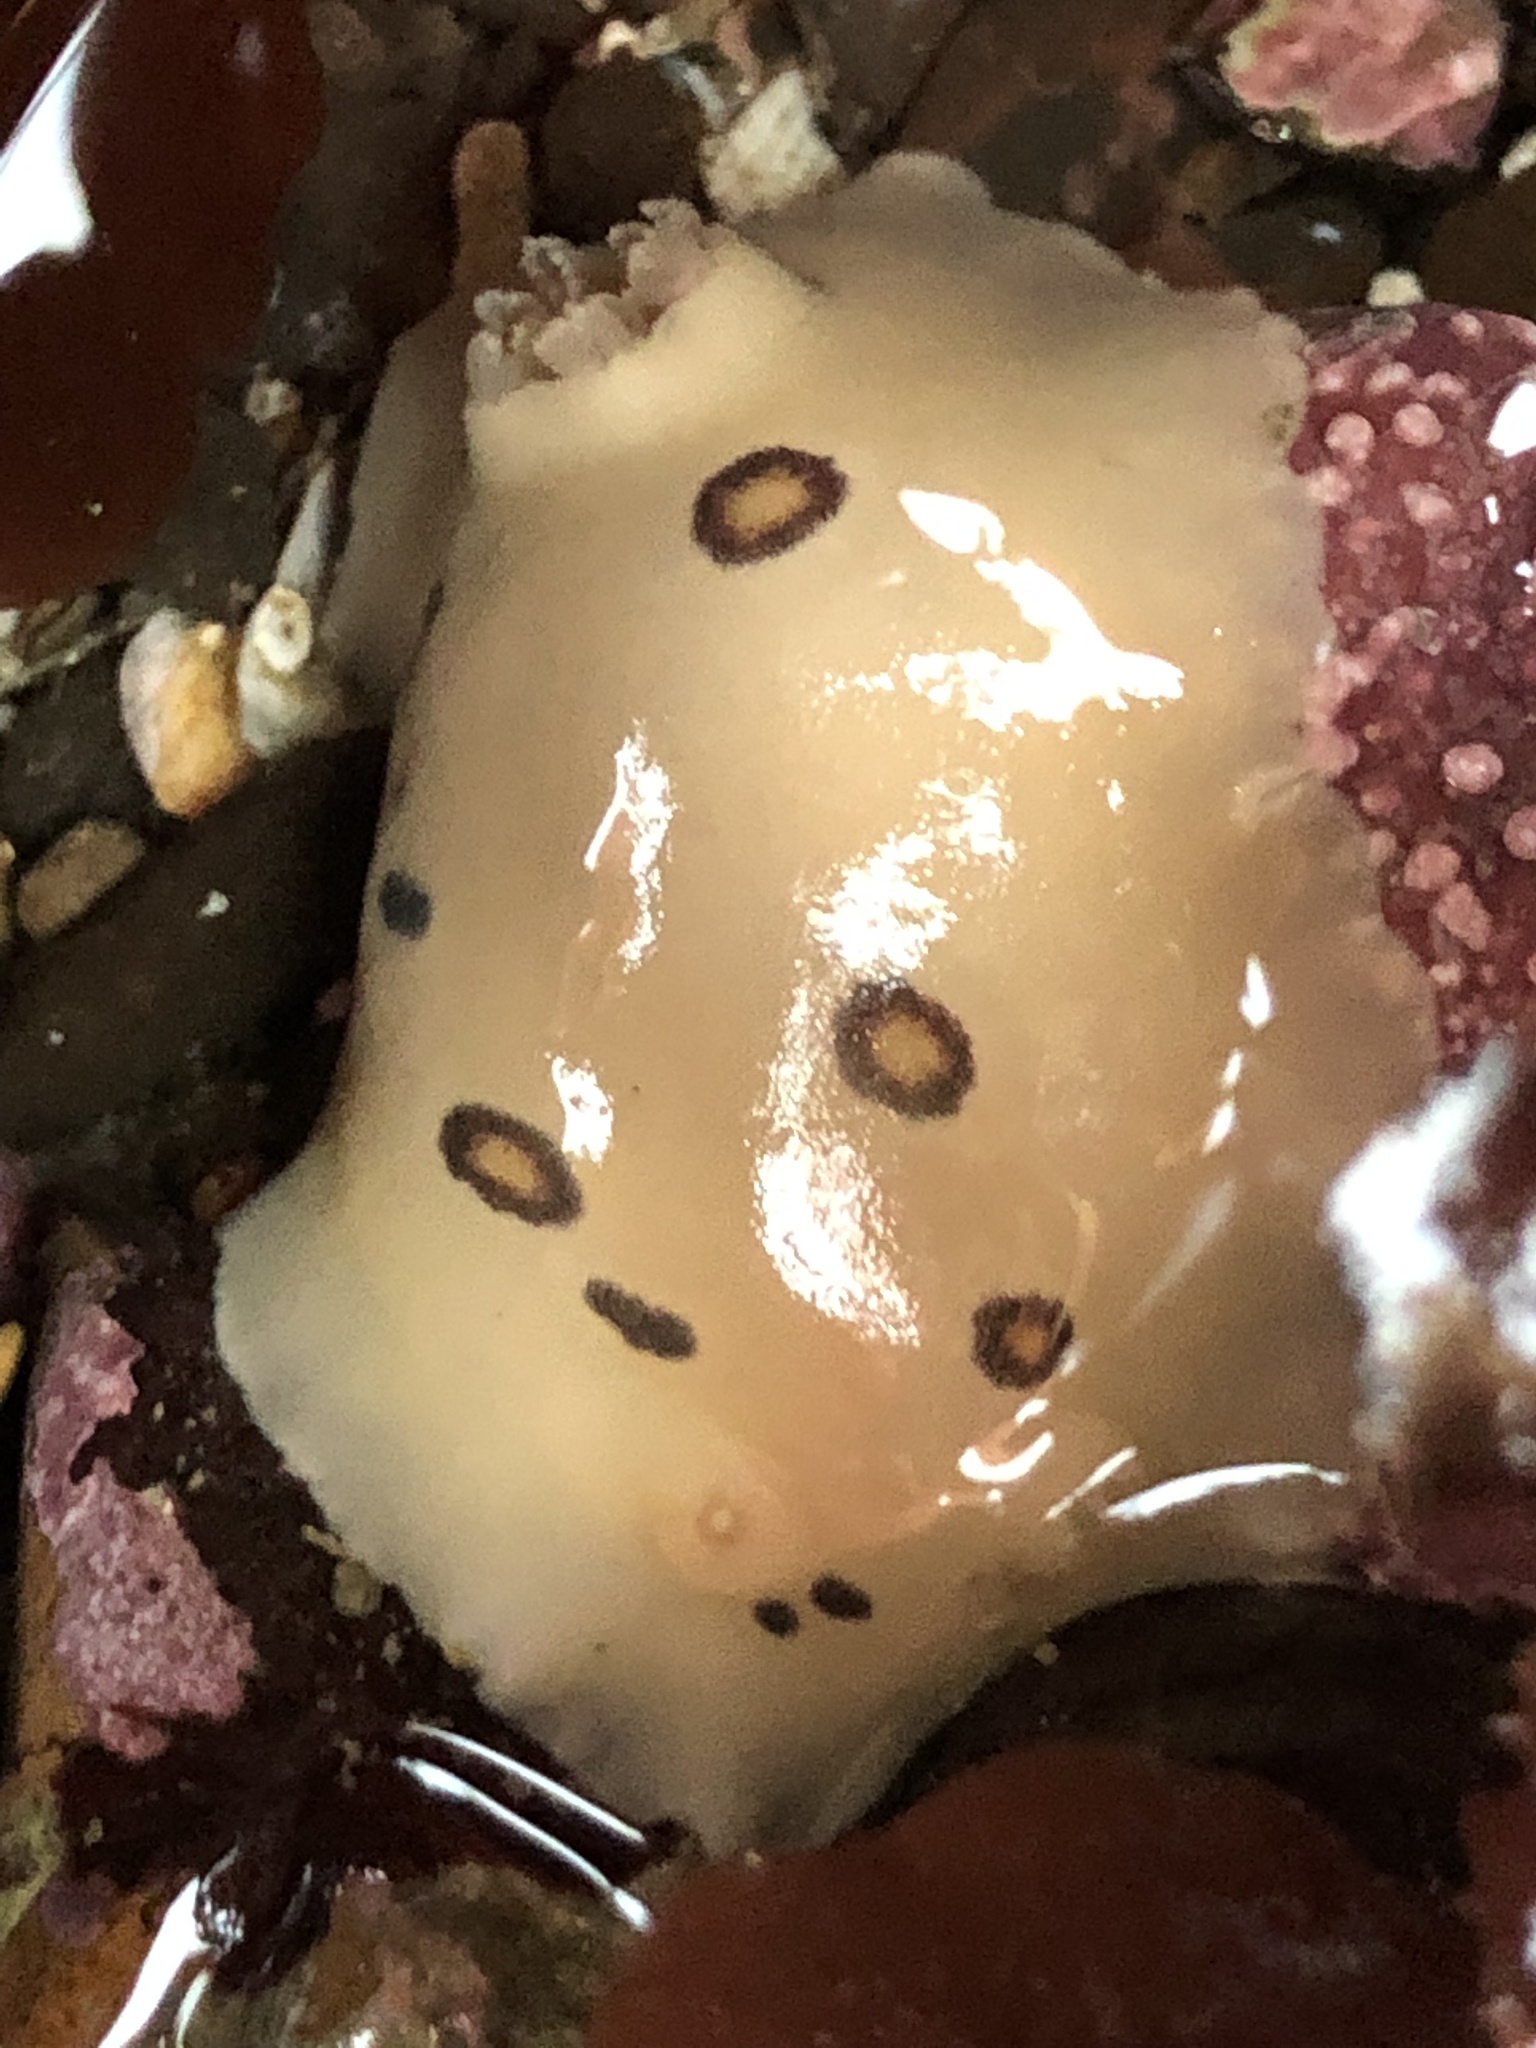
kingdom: Animalia
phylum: Mollusca
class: Gastropoda
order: Nudibranchia
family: Discodorididae
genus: Diaulula
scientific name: Diaulula sandiegensis
